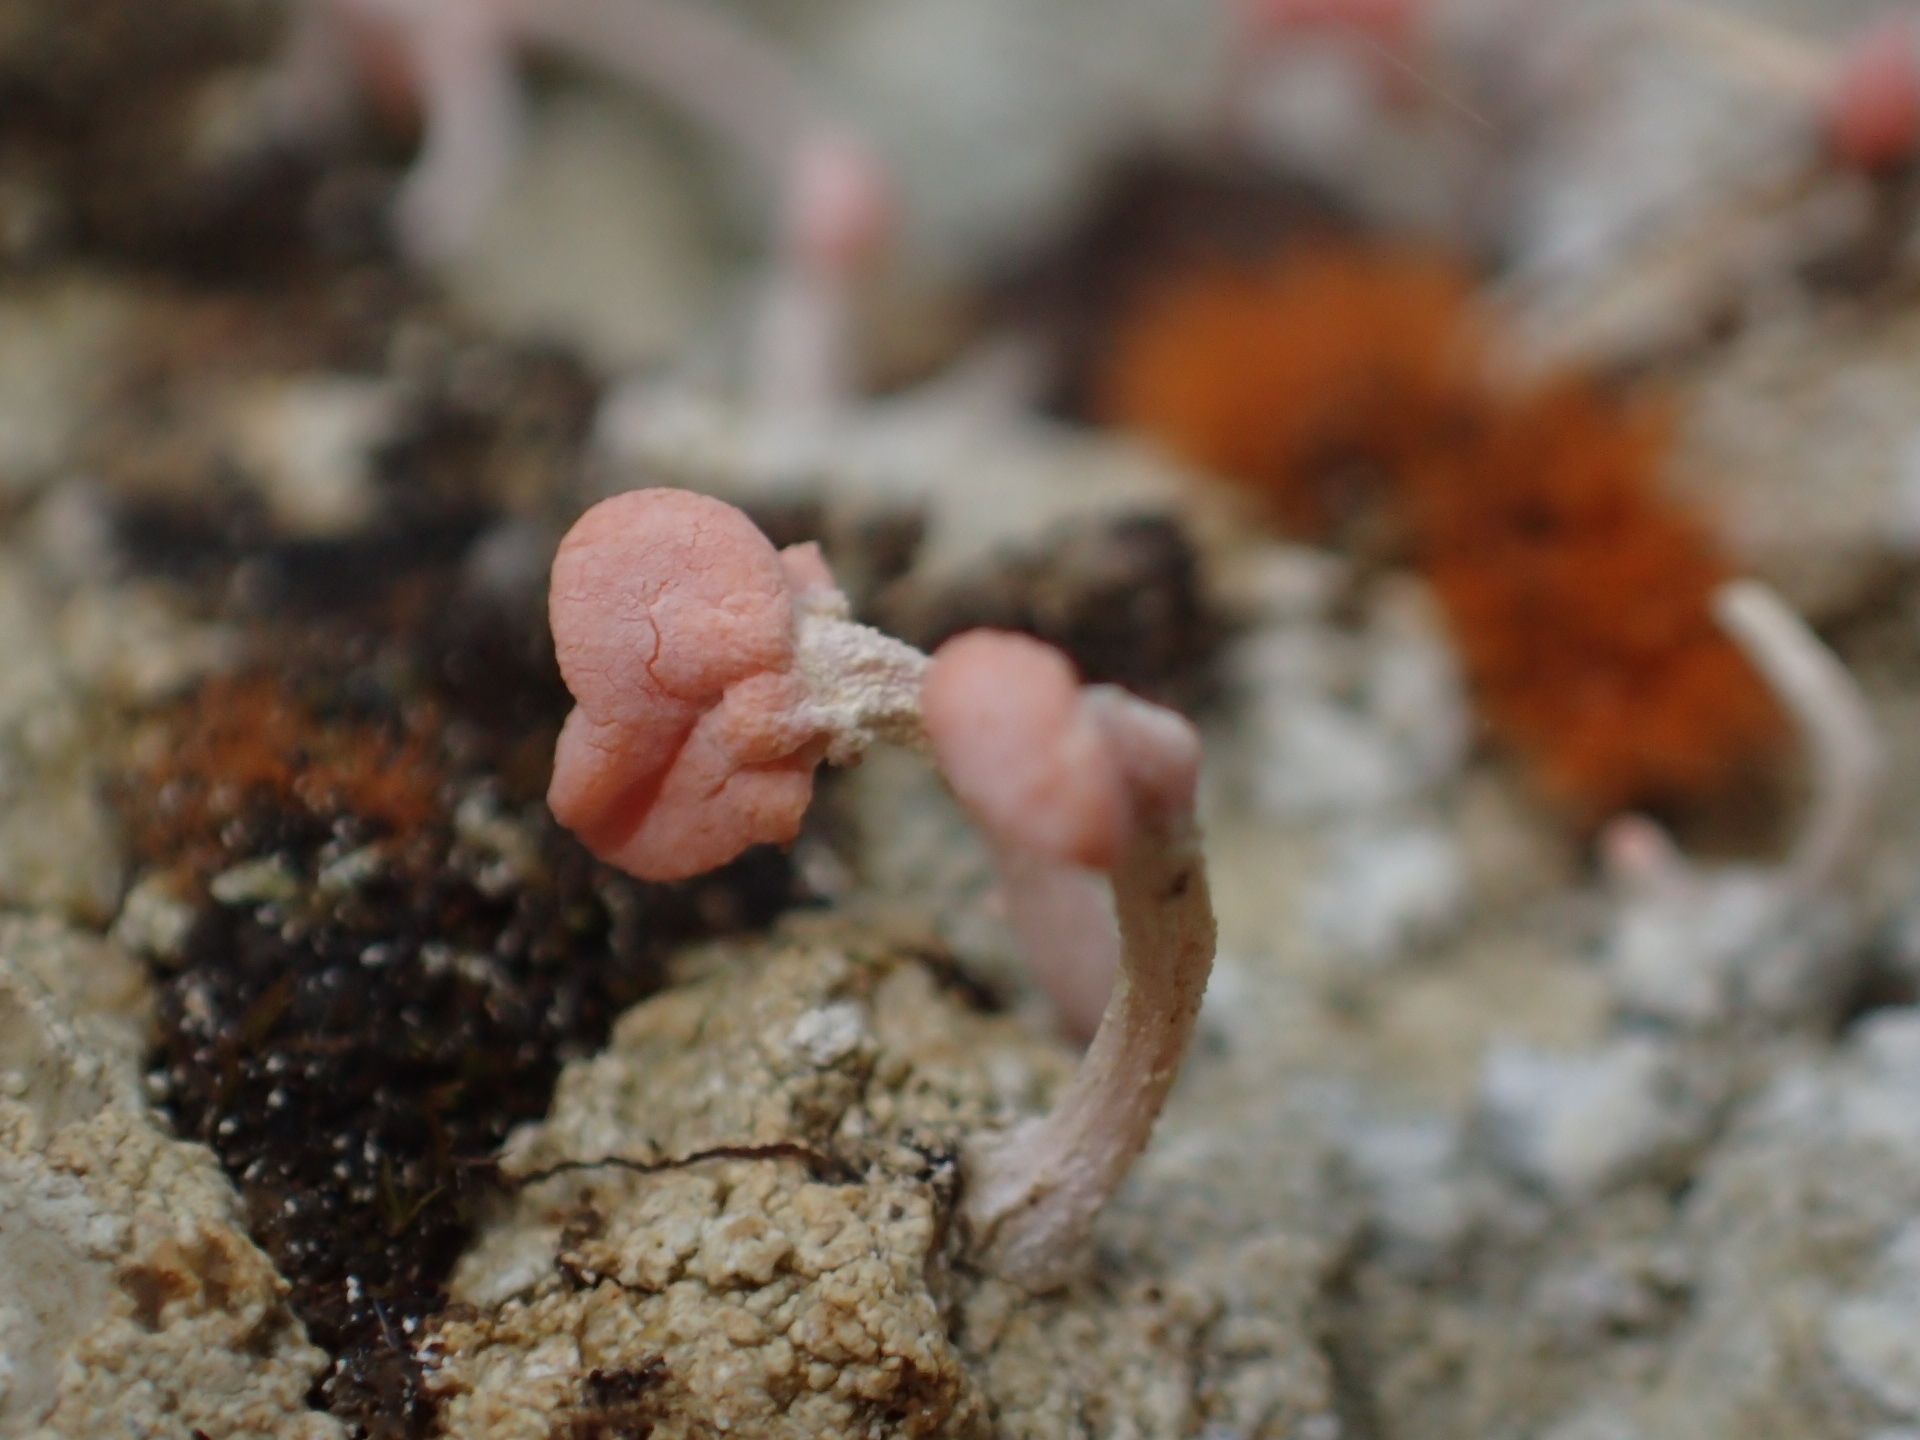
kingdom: Fungi
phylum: Ascomycota
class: Lecanoromycetes
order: Pertusariales
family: Icmadophilaceae
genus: Dibaeis
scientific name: Dibaeis arcuata
